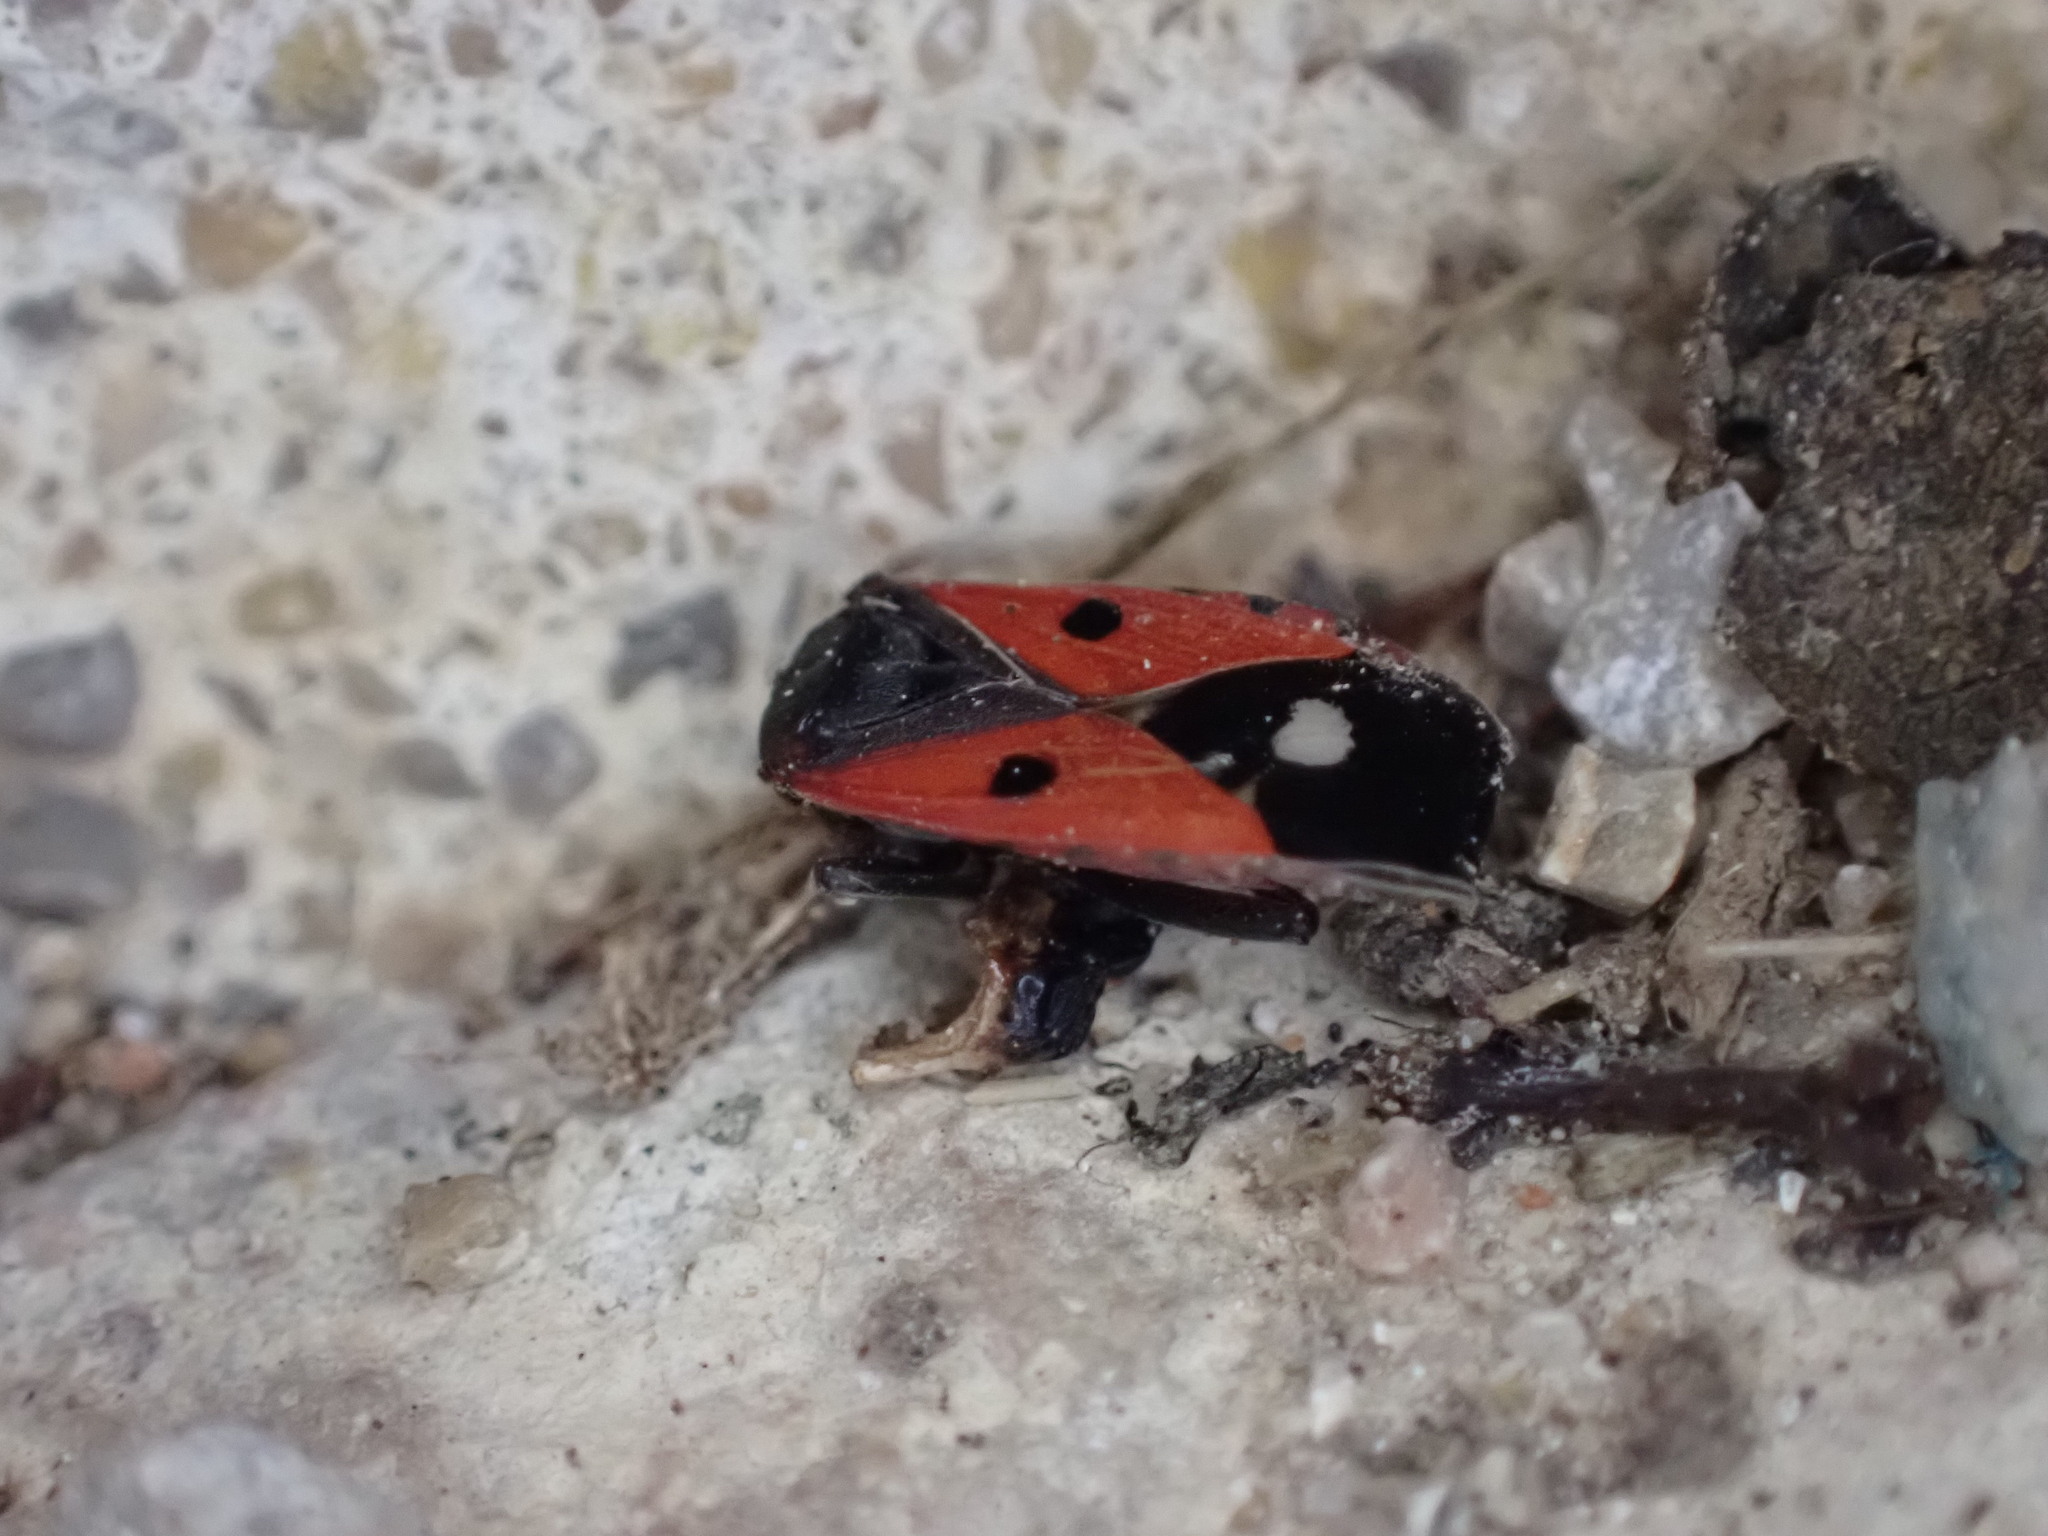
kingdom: Animalia
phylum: Arthropoda
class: Insecta
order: Hemiptera
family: Lygaeidae
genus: Melanocoryphus
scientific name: Melanocoryphus albomaculatus
